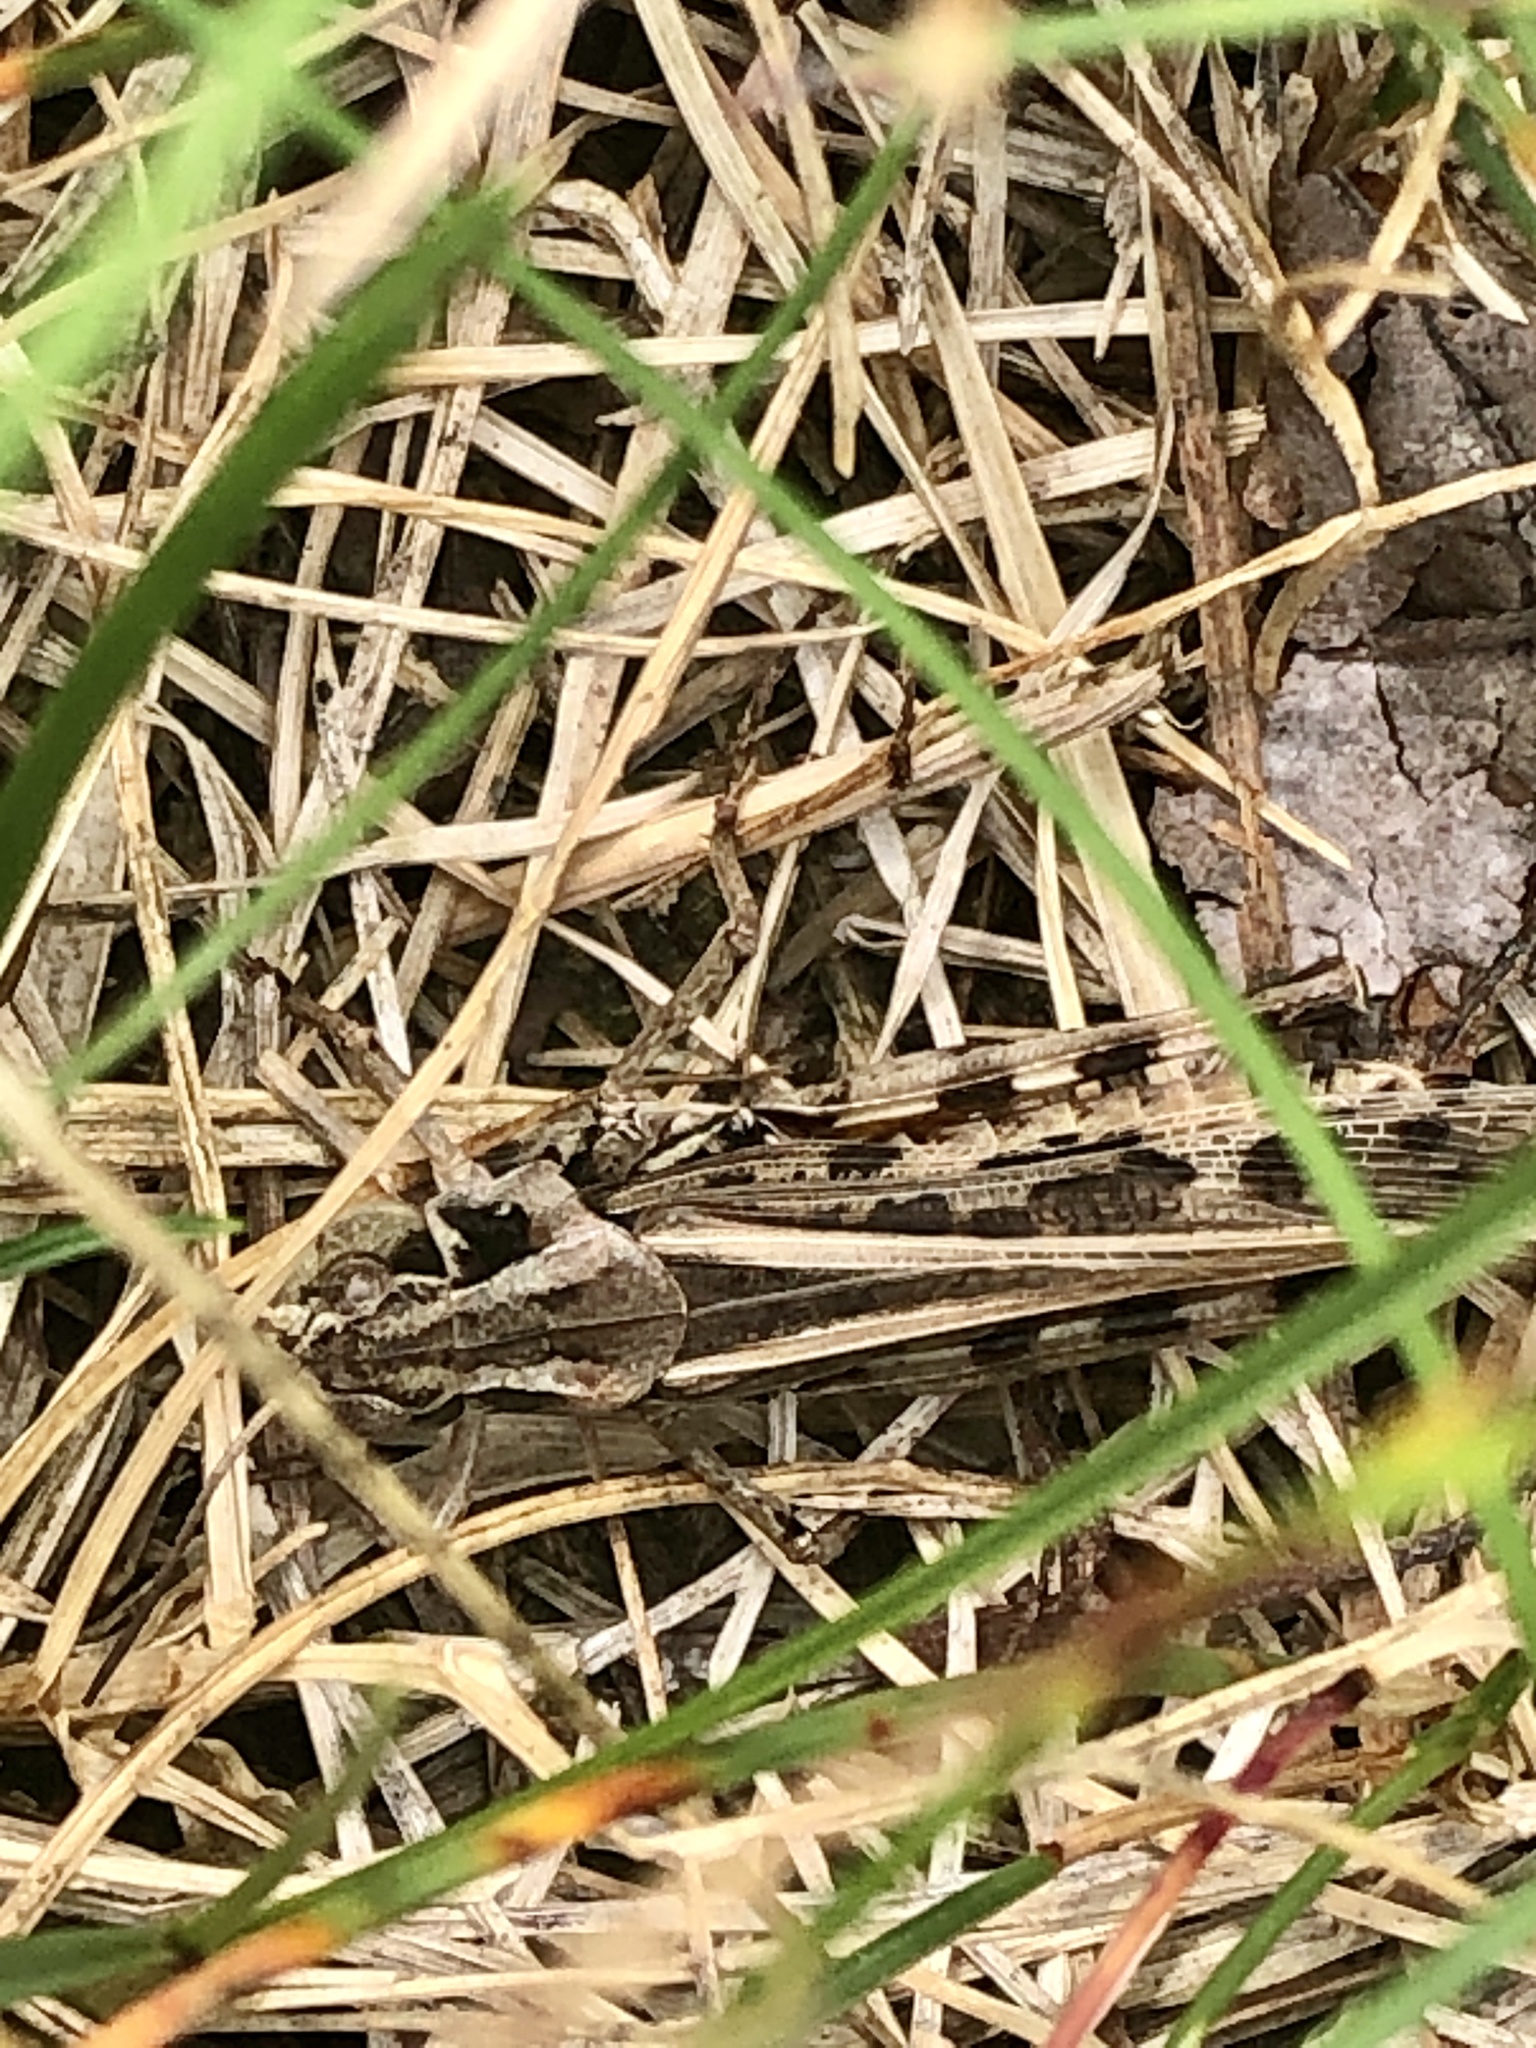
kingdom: Animalia
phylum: Arthropoda
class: Insecta
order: Orthoptera
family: Acrididae
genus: Camnula
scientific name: Camnula pellucida
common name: Clear-winged grasshopper
